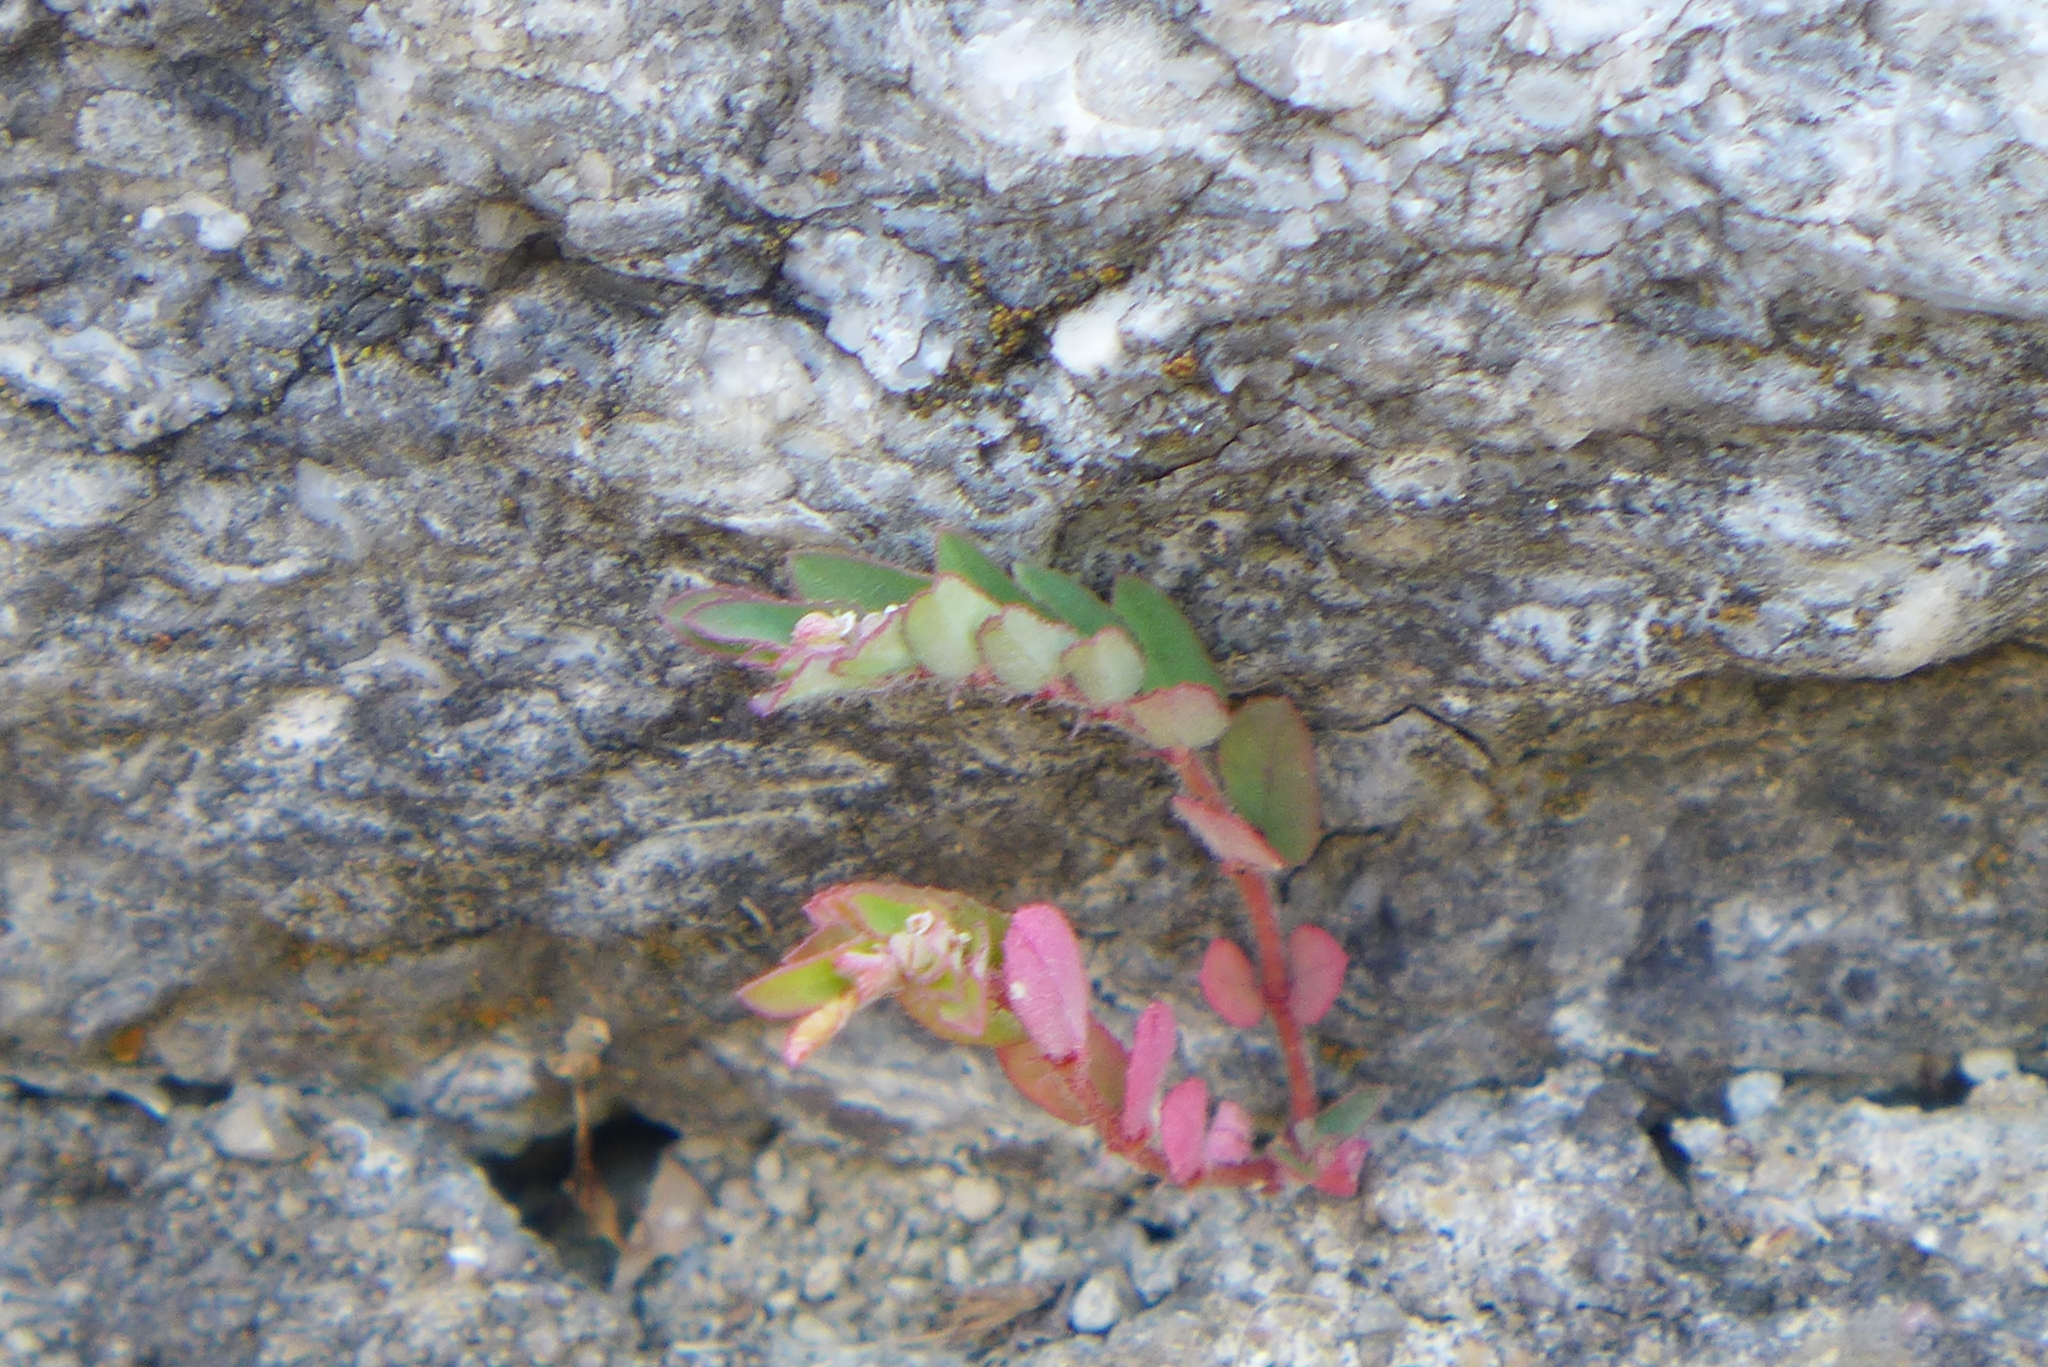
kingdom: Plantae
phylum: Tracheophyta
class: Magnoliopsida
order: Malpighiales
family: Euphorbiaceae
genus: Euphorbia
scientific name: Euphorbia maculata
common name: Spotted spurge
